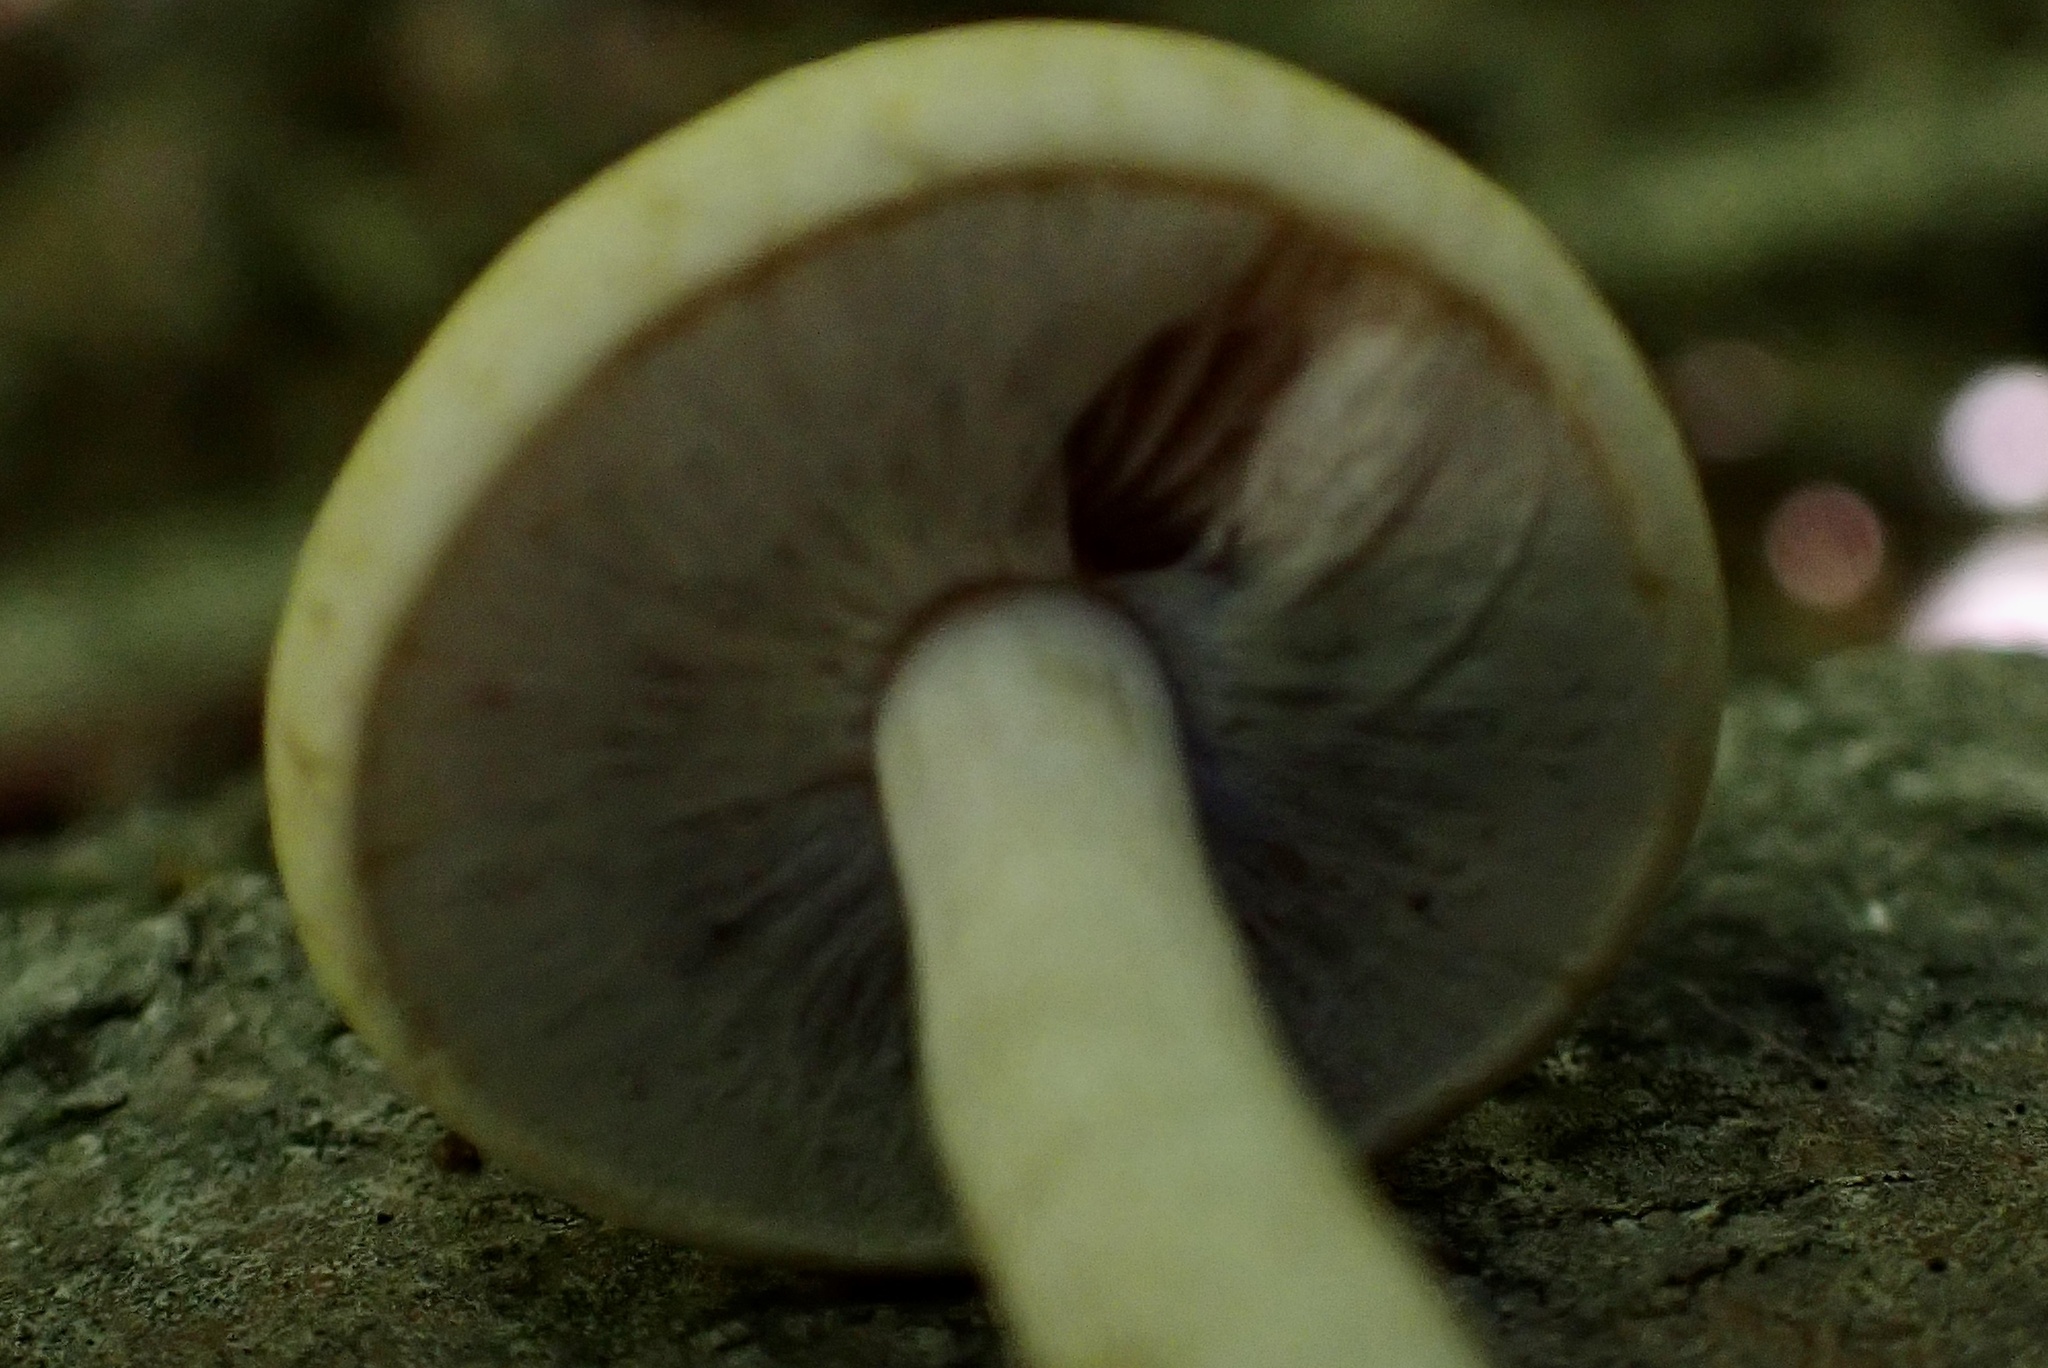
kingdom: Fungi
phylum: Basidiomycota
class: Agaricomycetes
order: Agaricales
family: Strophariaceae
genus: Agrocybe
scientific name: Agrocybe acericola
